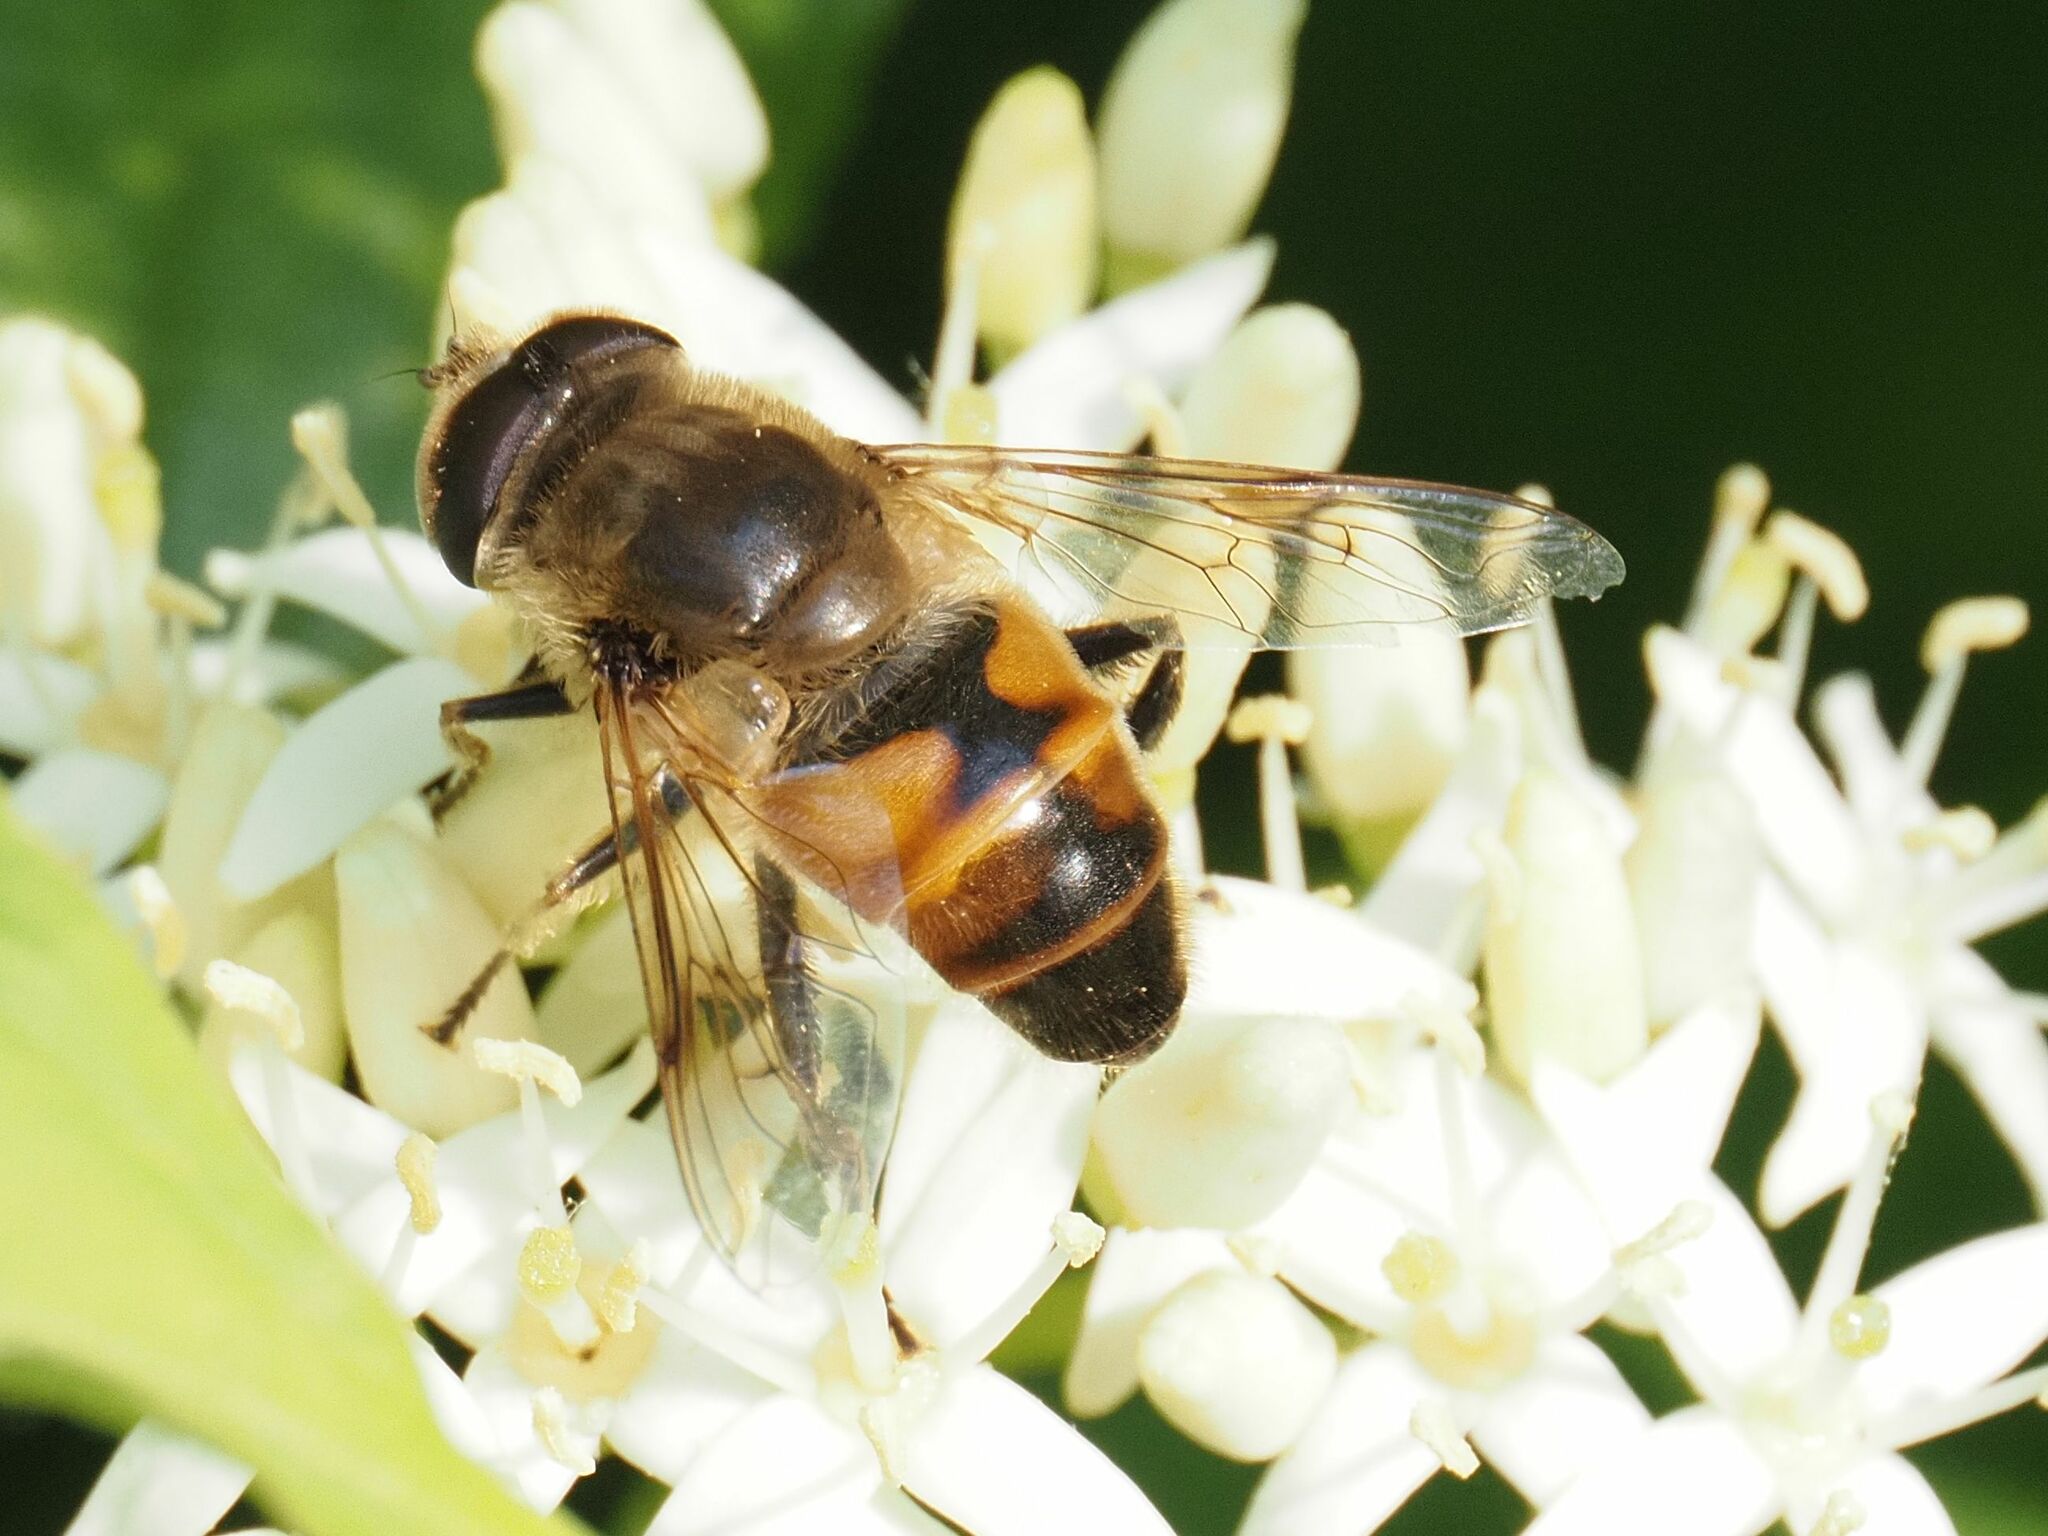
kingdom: Animalia
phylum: Arthropoda
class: Insecta
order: Diptera
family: Syrphidae
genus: Eristalis
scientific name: Eristalis tenax
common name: Drone fly
